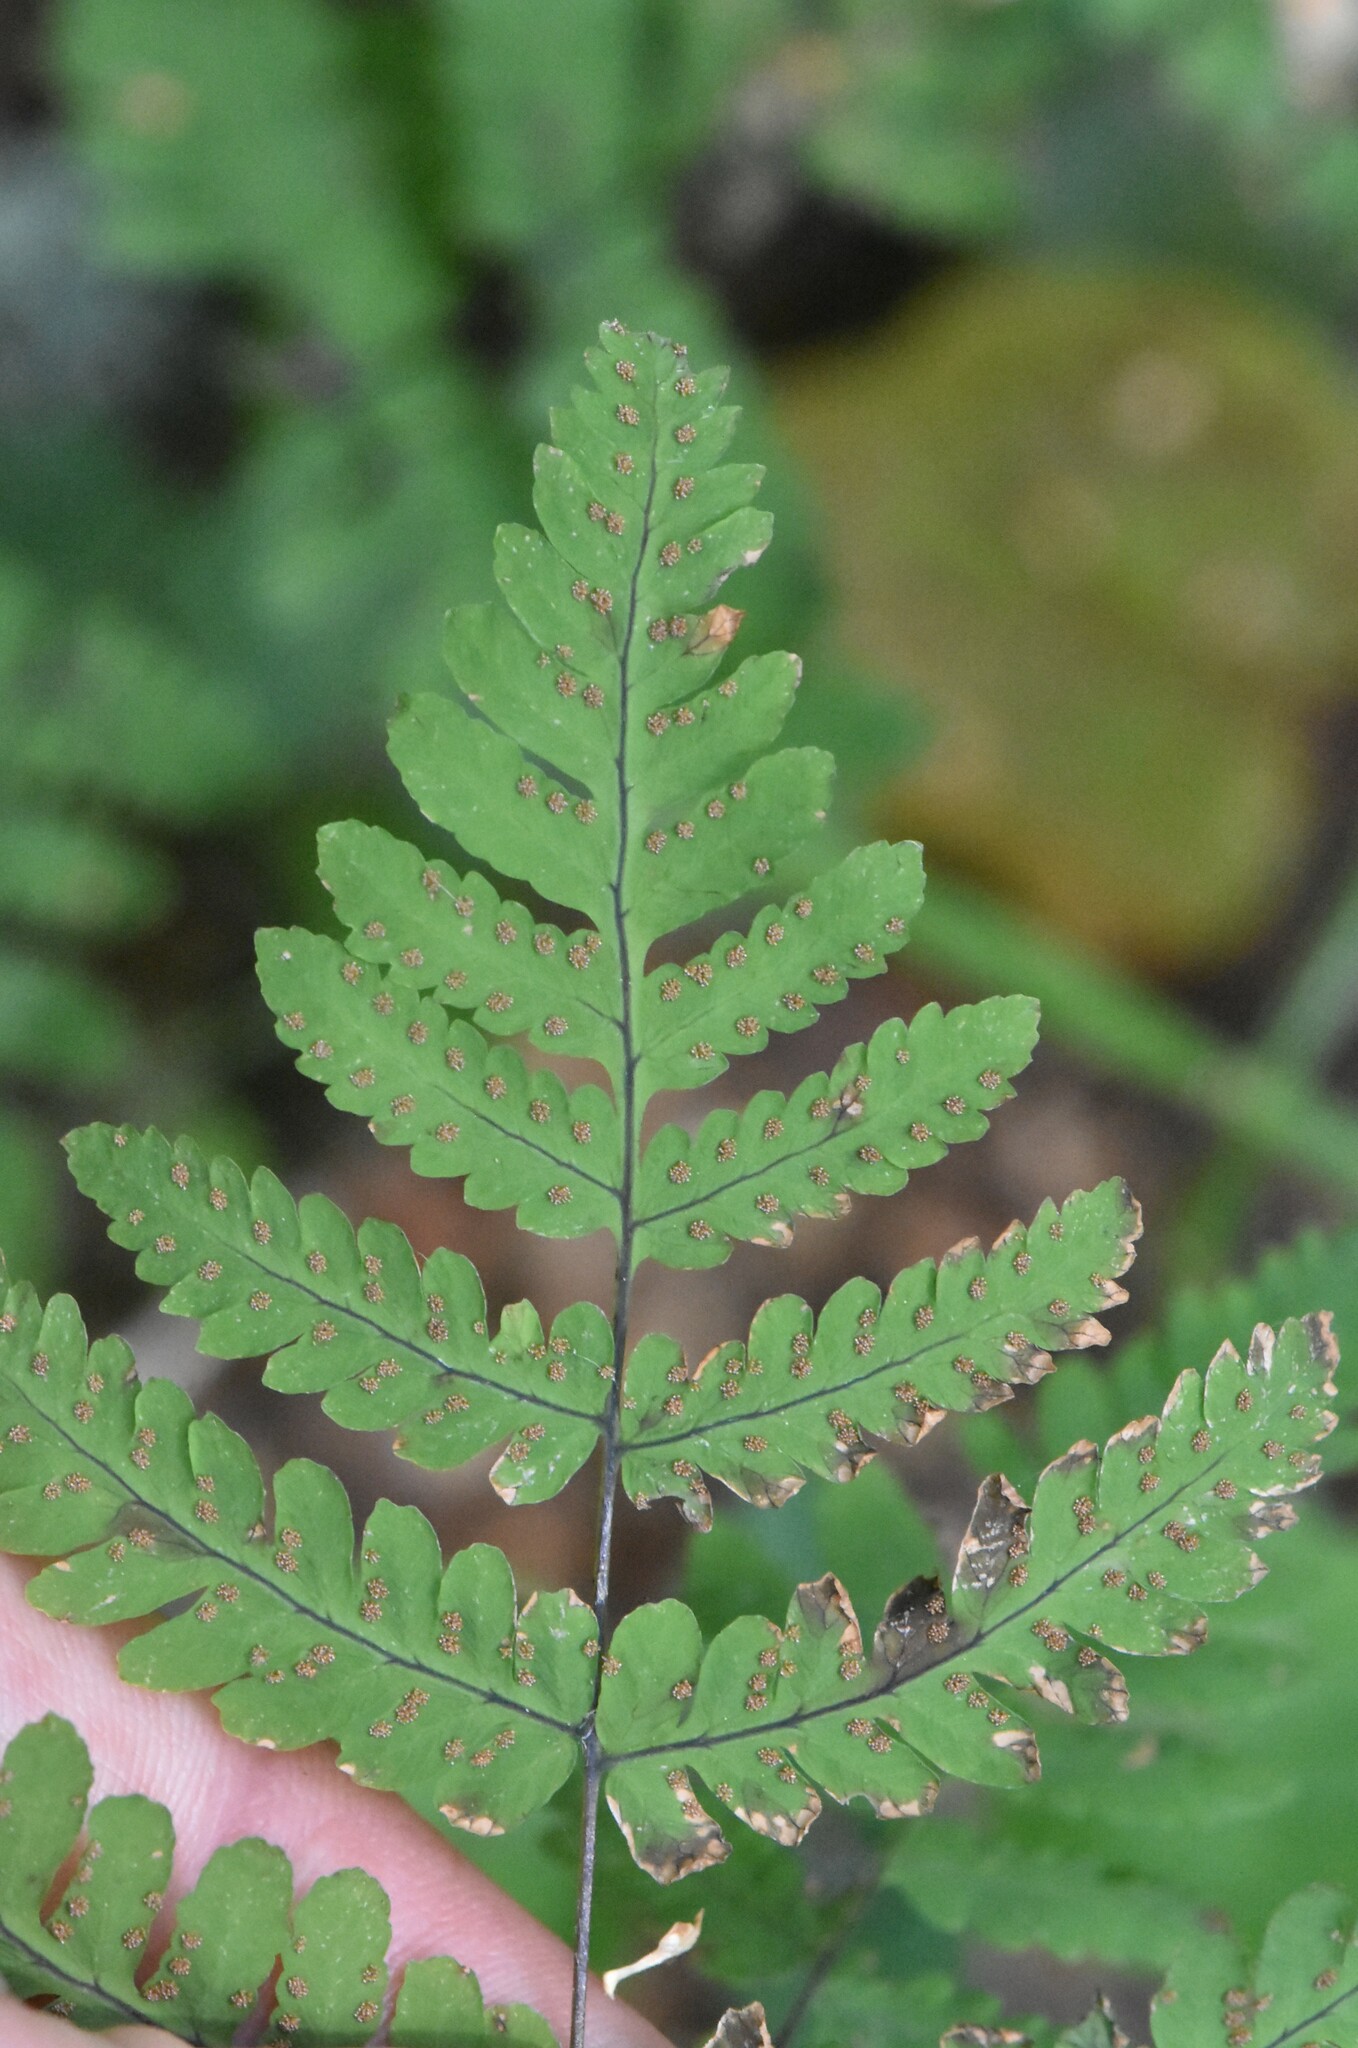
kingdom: Plantae
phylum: Tracheophyta
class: Polypodiopsida
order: Polypodiales
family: Cystopteridaceae
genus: Gymnocarpium
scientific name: Gymnocarpium dryopteris
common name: Oak fern
